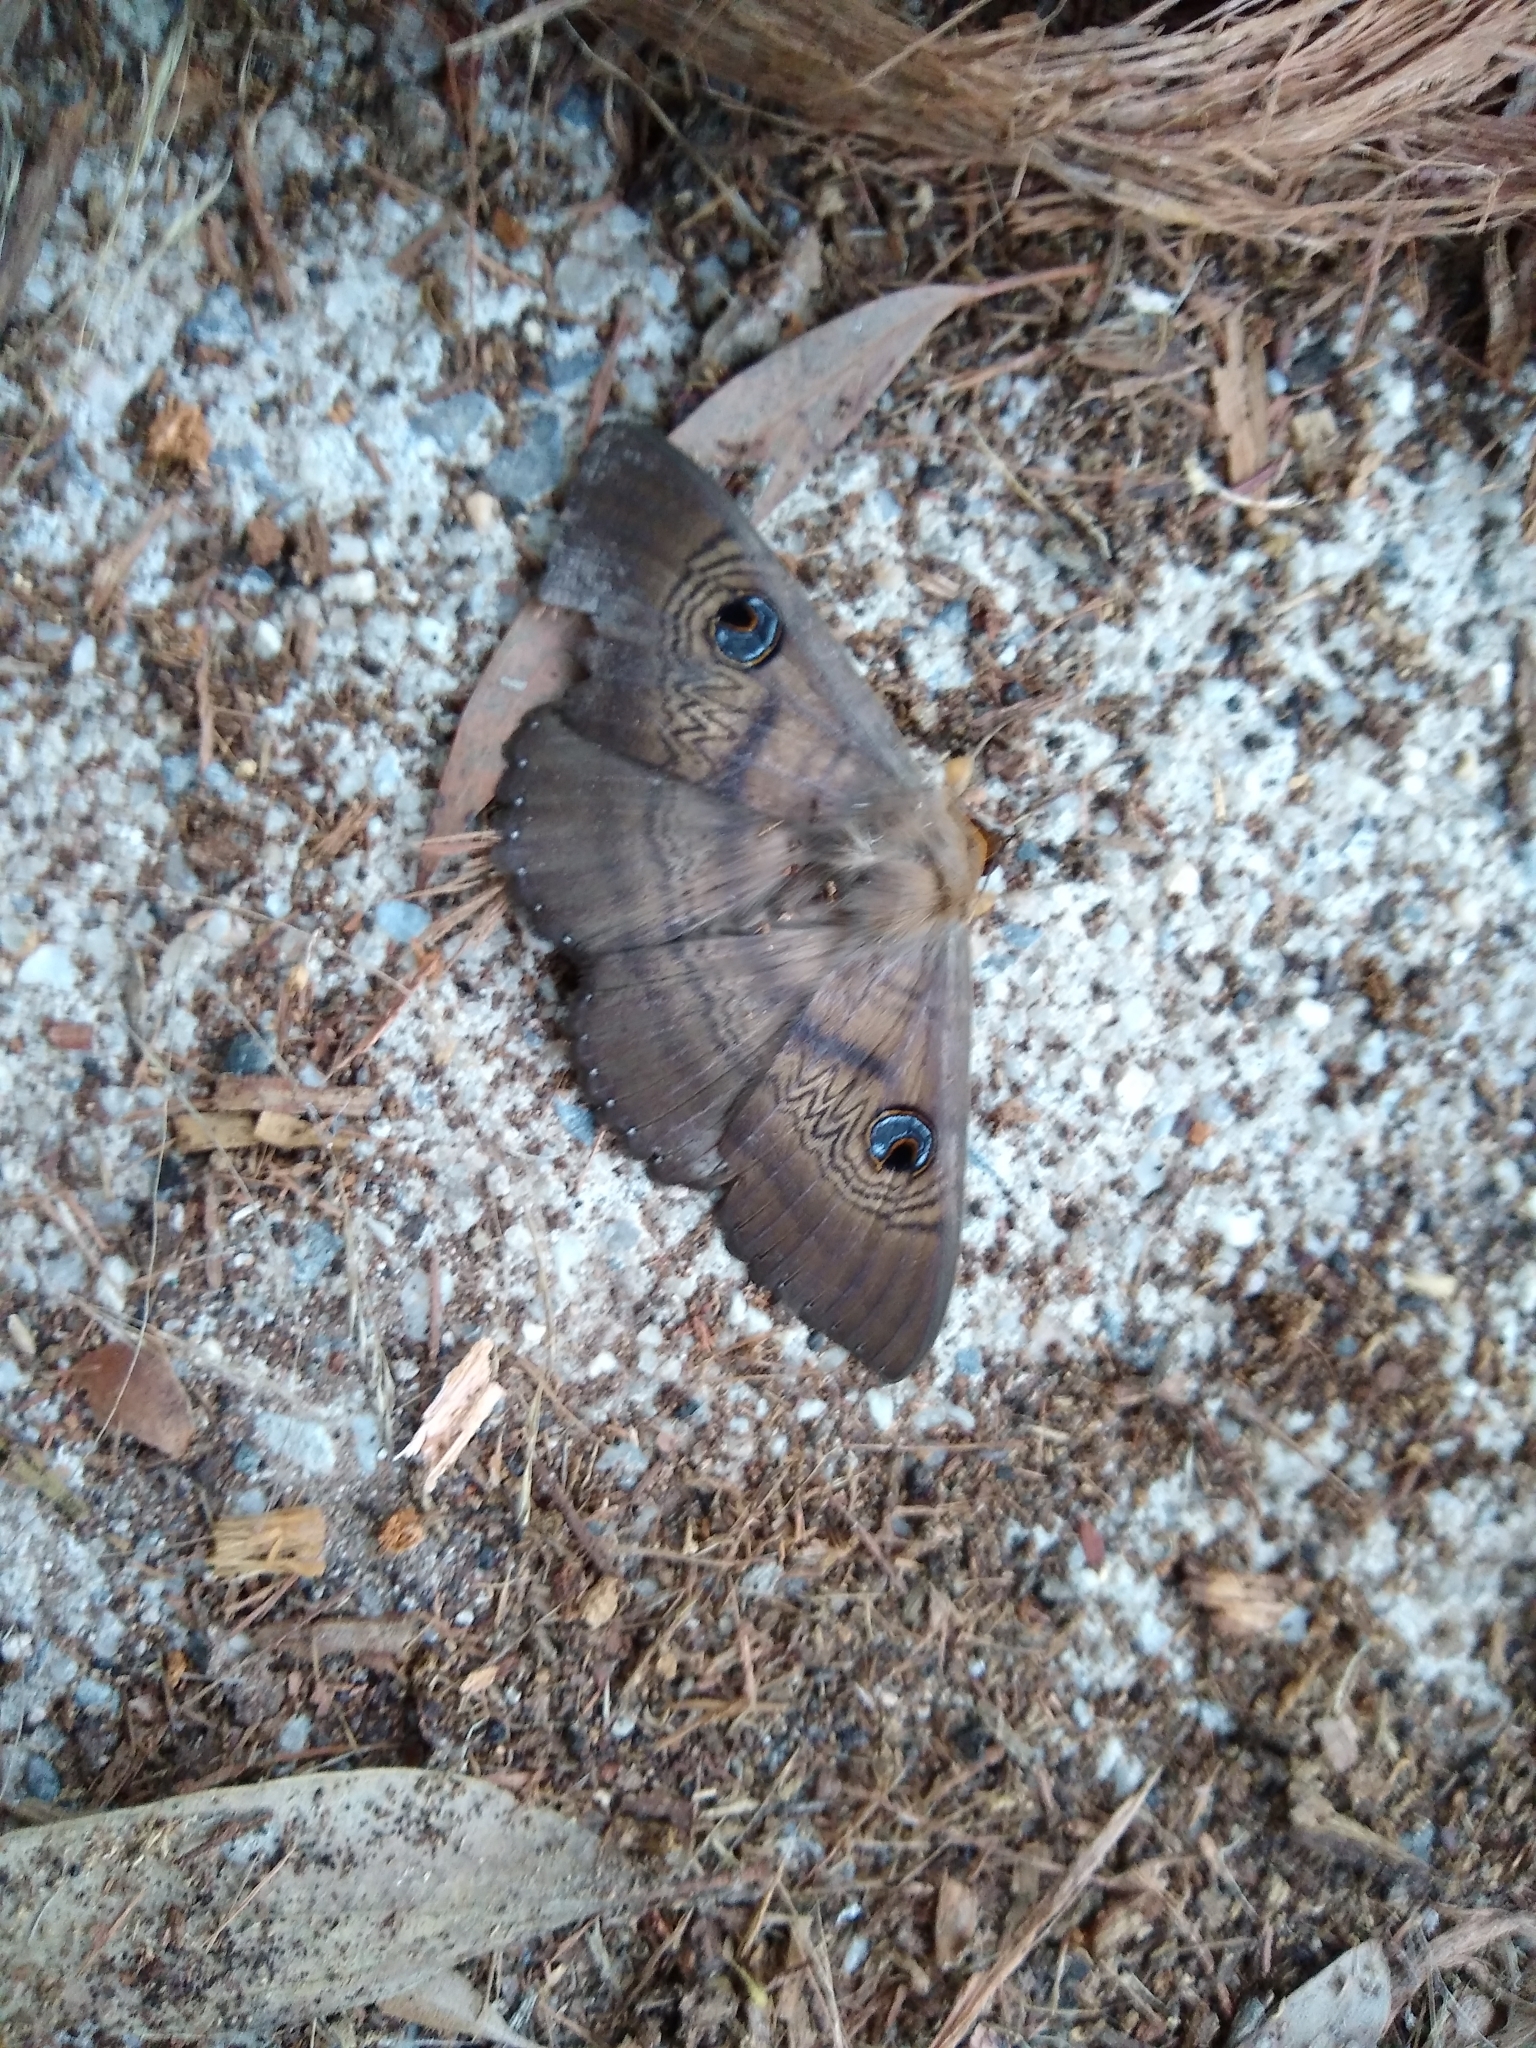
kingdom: Animalia
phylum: Arthropoda
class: Insecta
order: Lepidoptera
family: Erebidae
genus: Dasypodia
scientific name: Dasypodia selenophora
